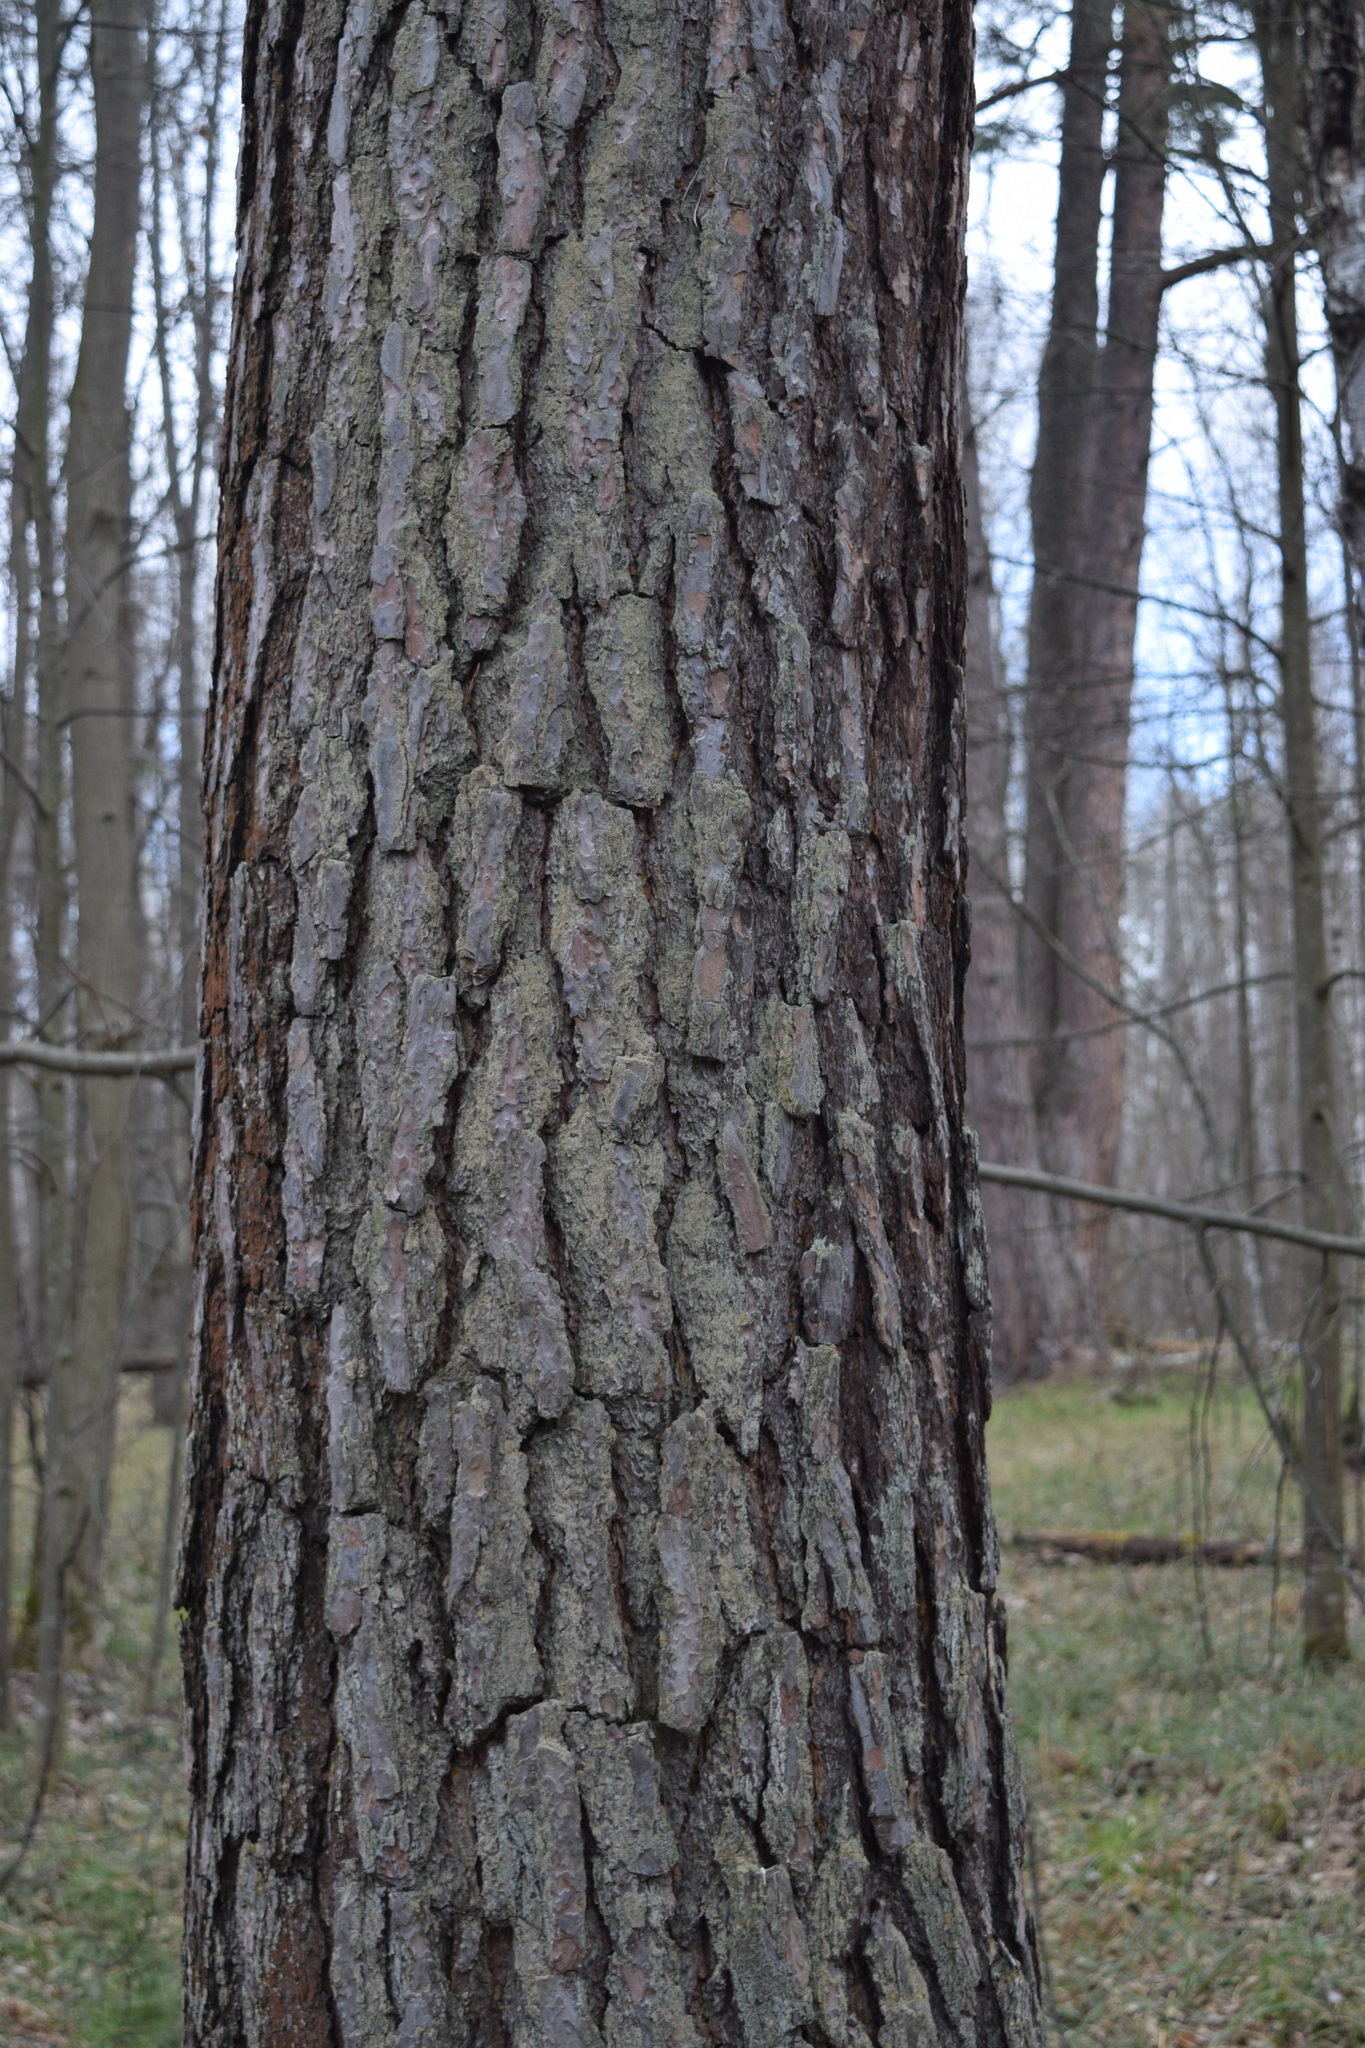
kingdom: Plantae
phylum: Tracheophyta
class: Pinopsida
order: Pinales
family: Pinaceae
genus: Pinus
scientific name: Pinus sylvestris
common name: Scots pine
